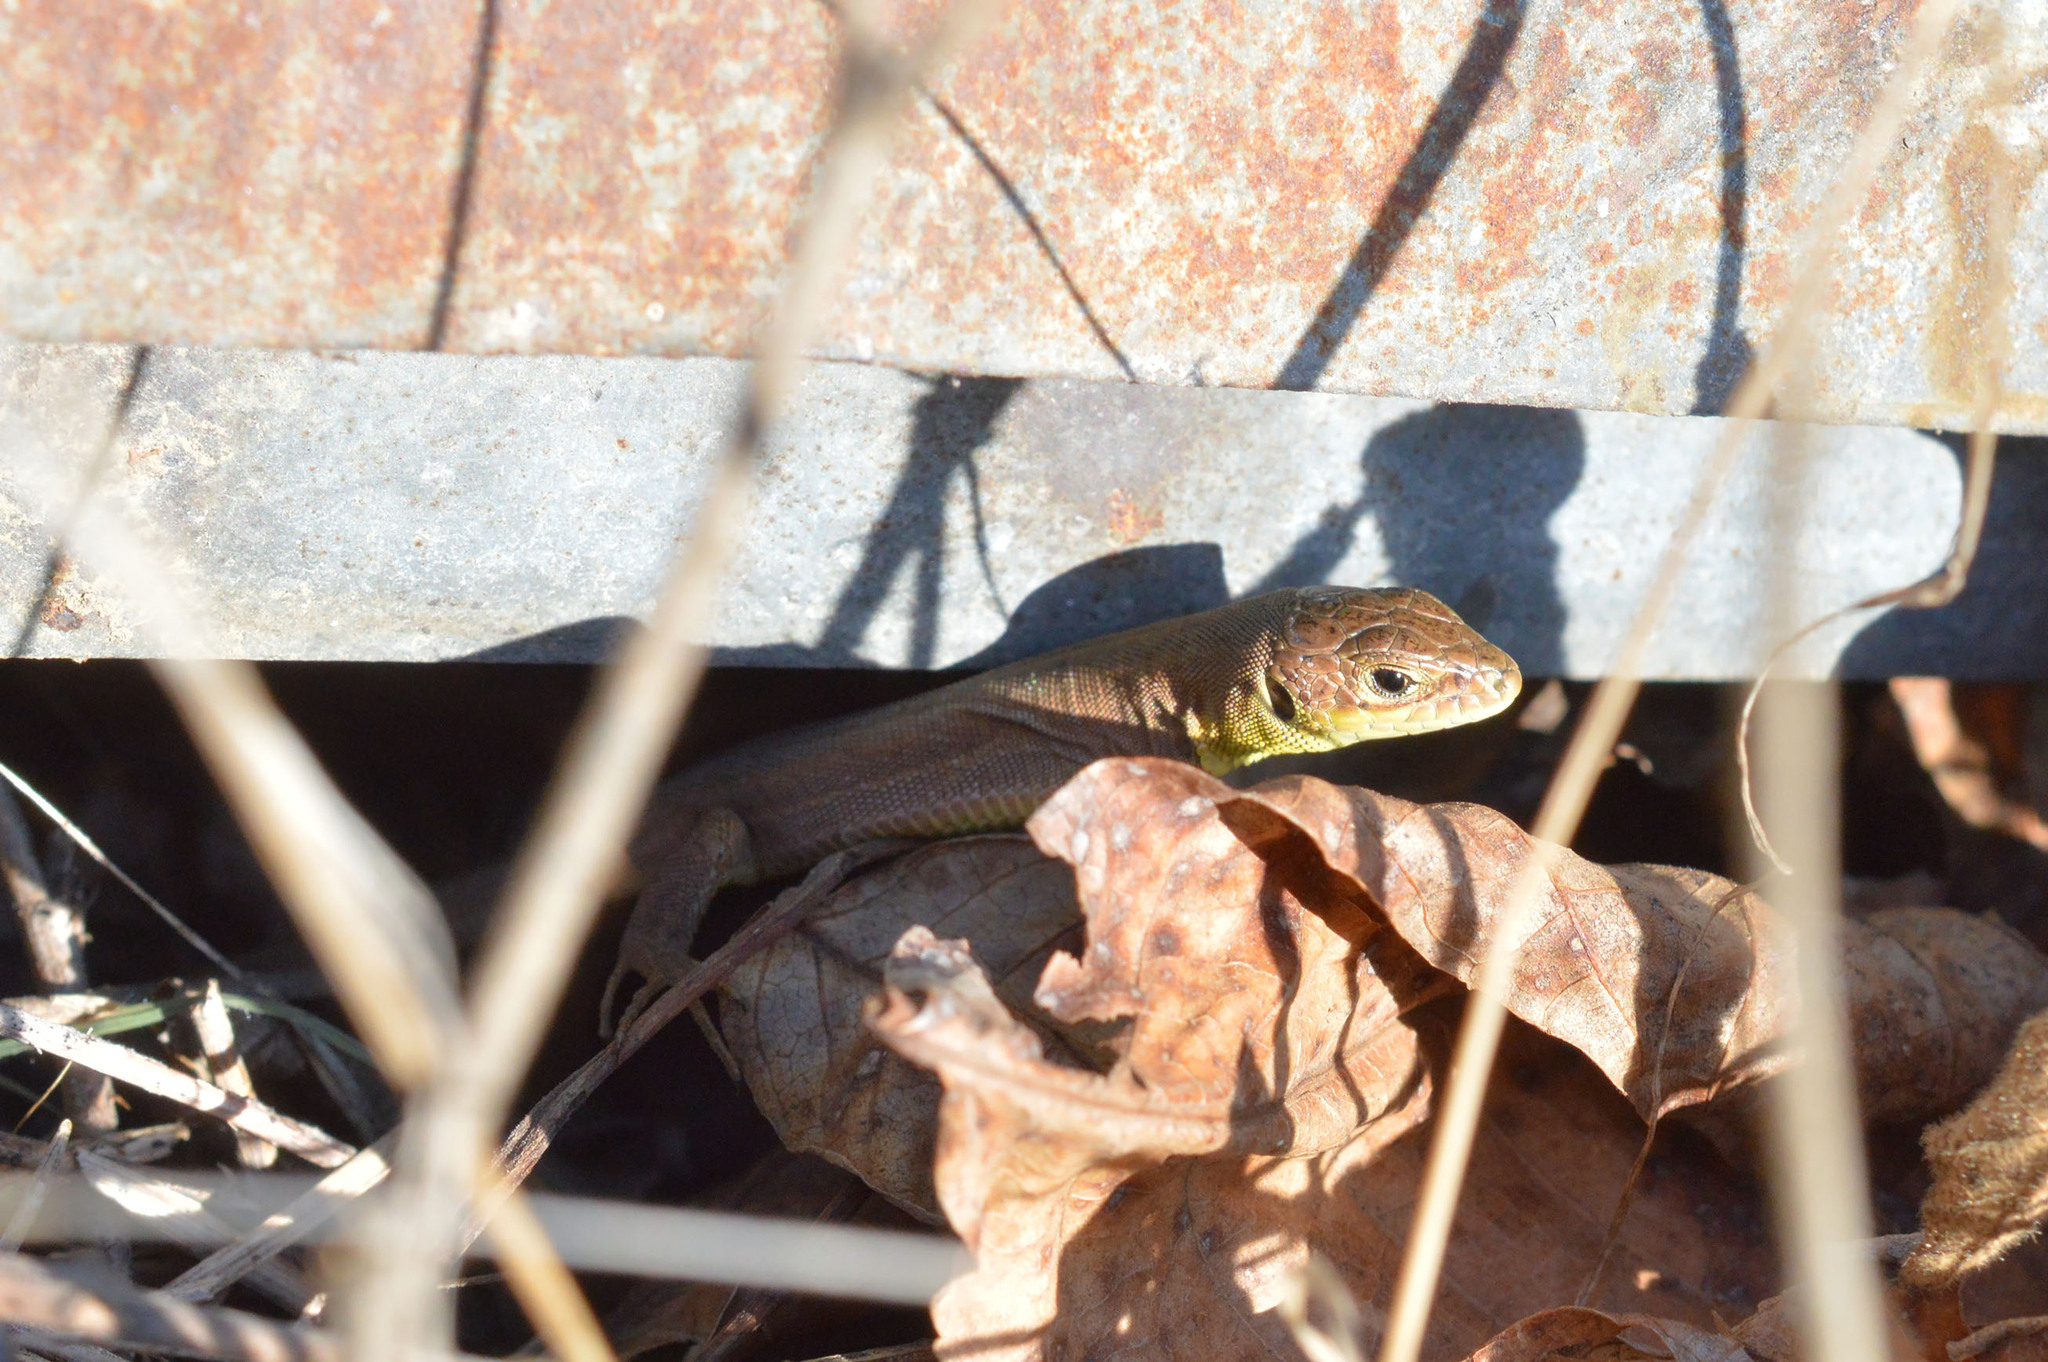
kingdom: Animalia
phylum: Chordata
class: Squamata
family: Lacertidae
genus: Lacerta
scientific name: Lacerta viridis
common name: European green lizard
